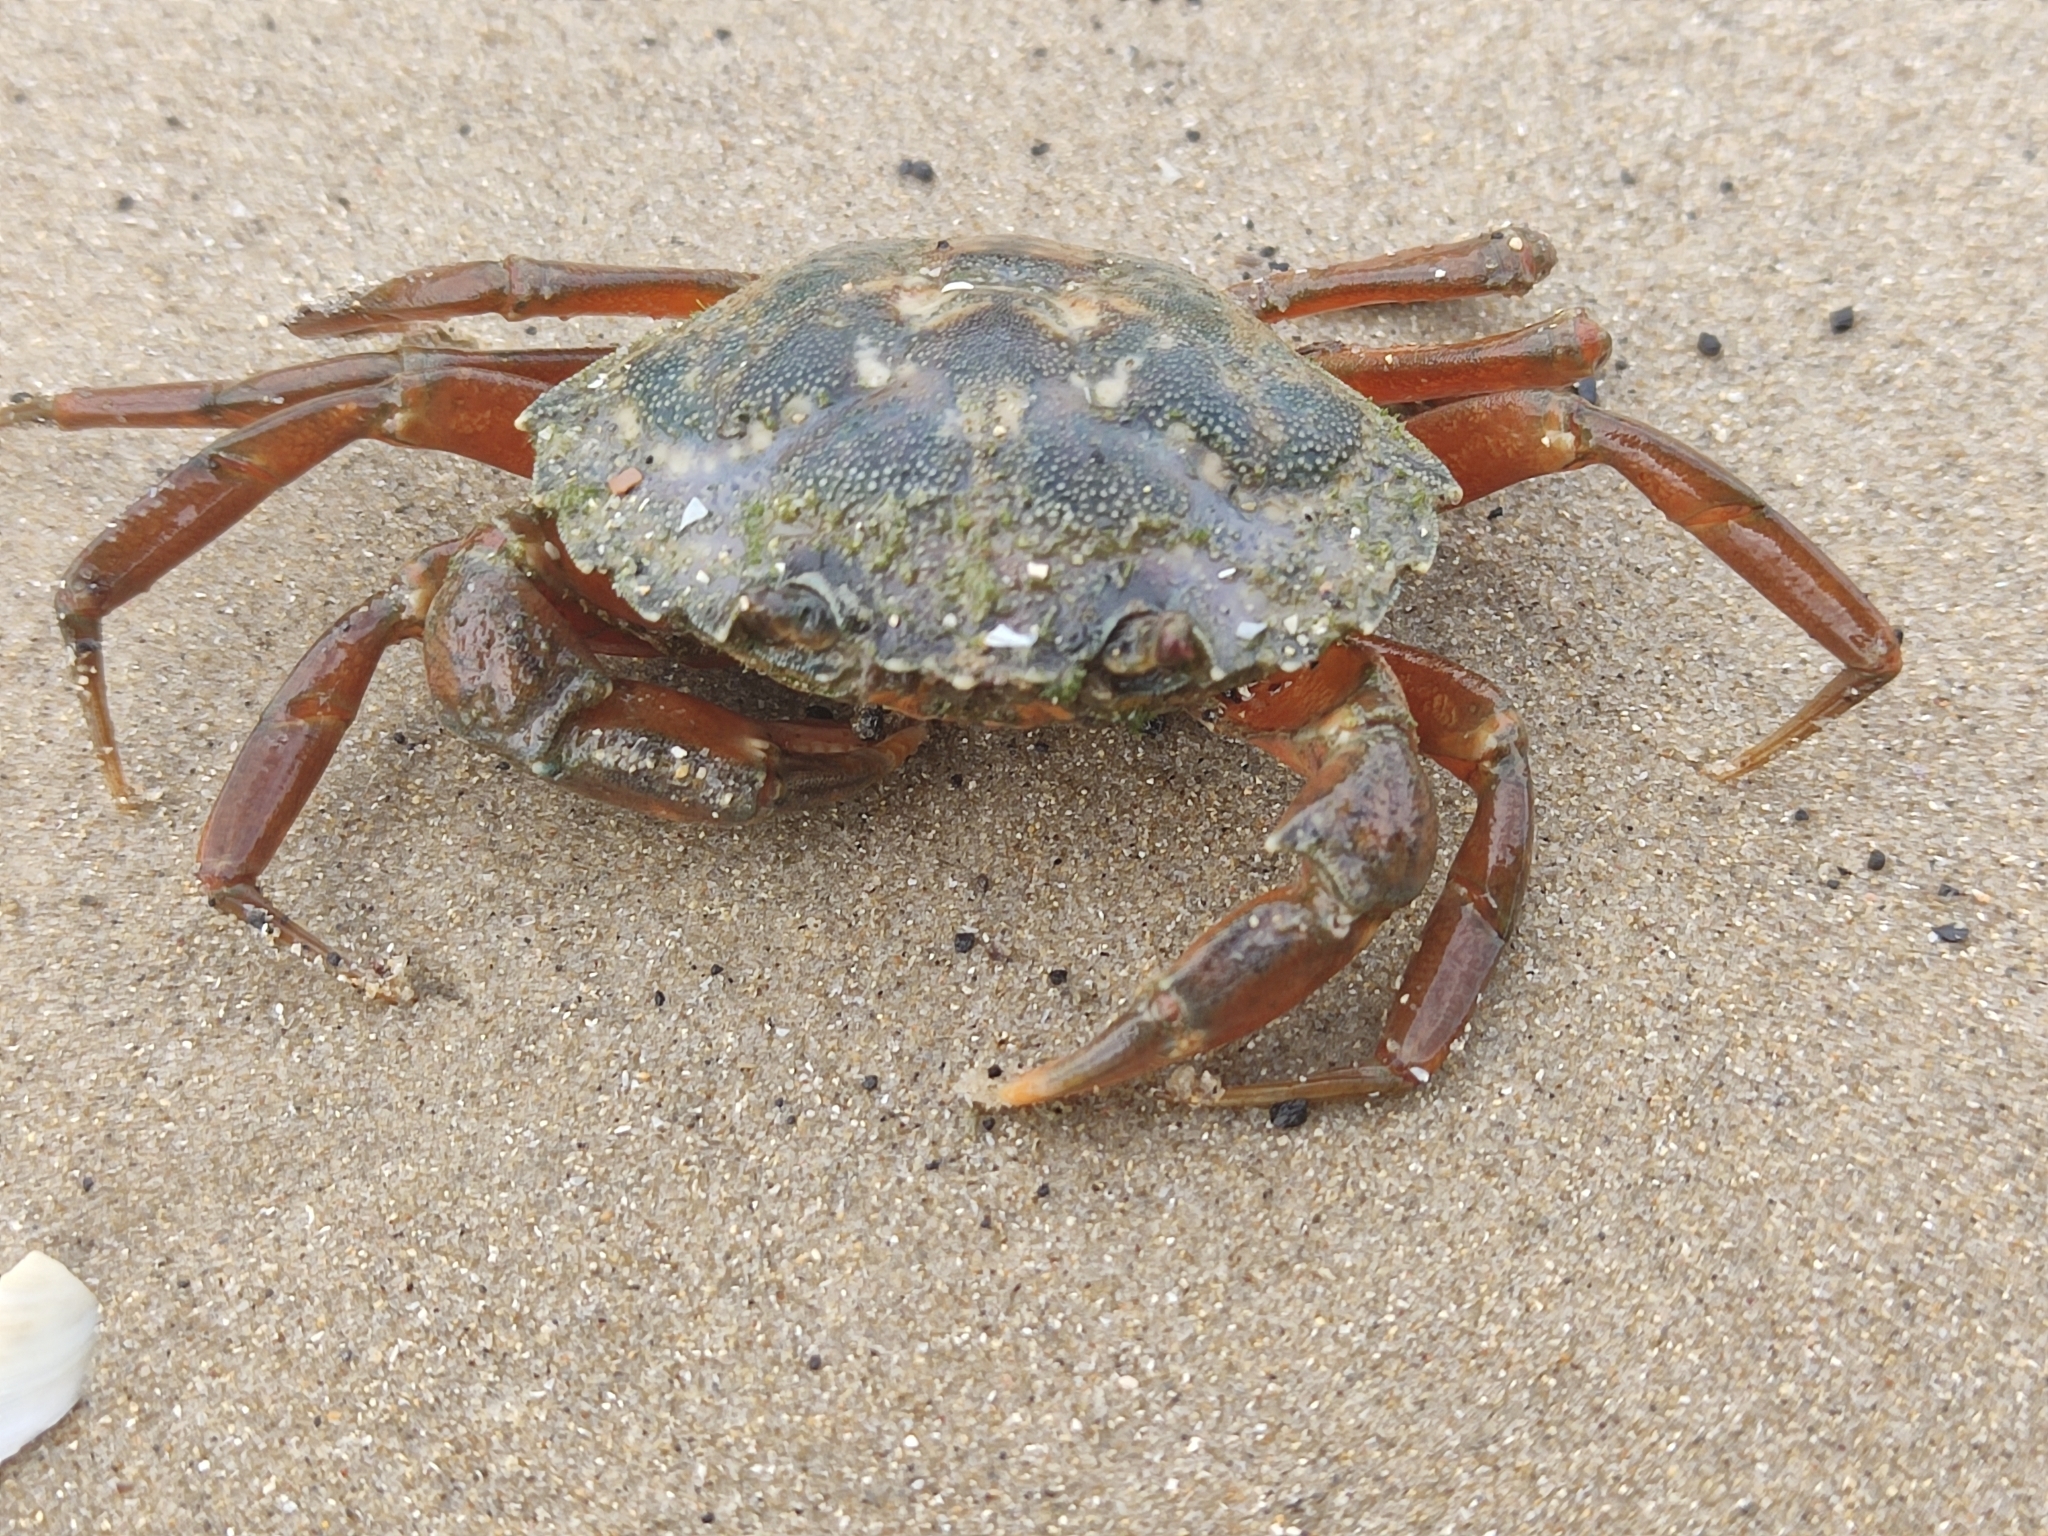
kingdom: Animalia
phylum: Arthropoda
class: Malacostraca
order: Decapoda
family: Carcinidae
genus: Carcinus
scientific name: Carcinus maenas
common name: European green crab
